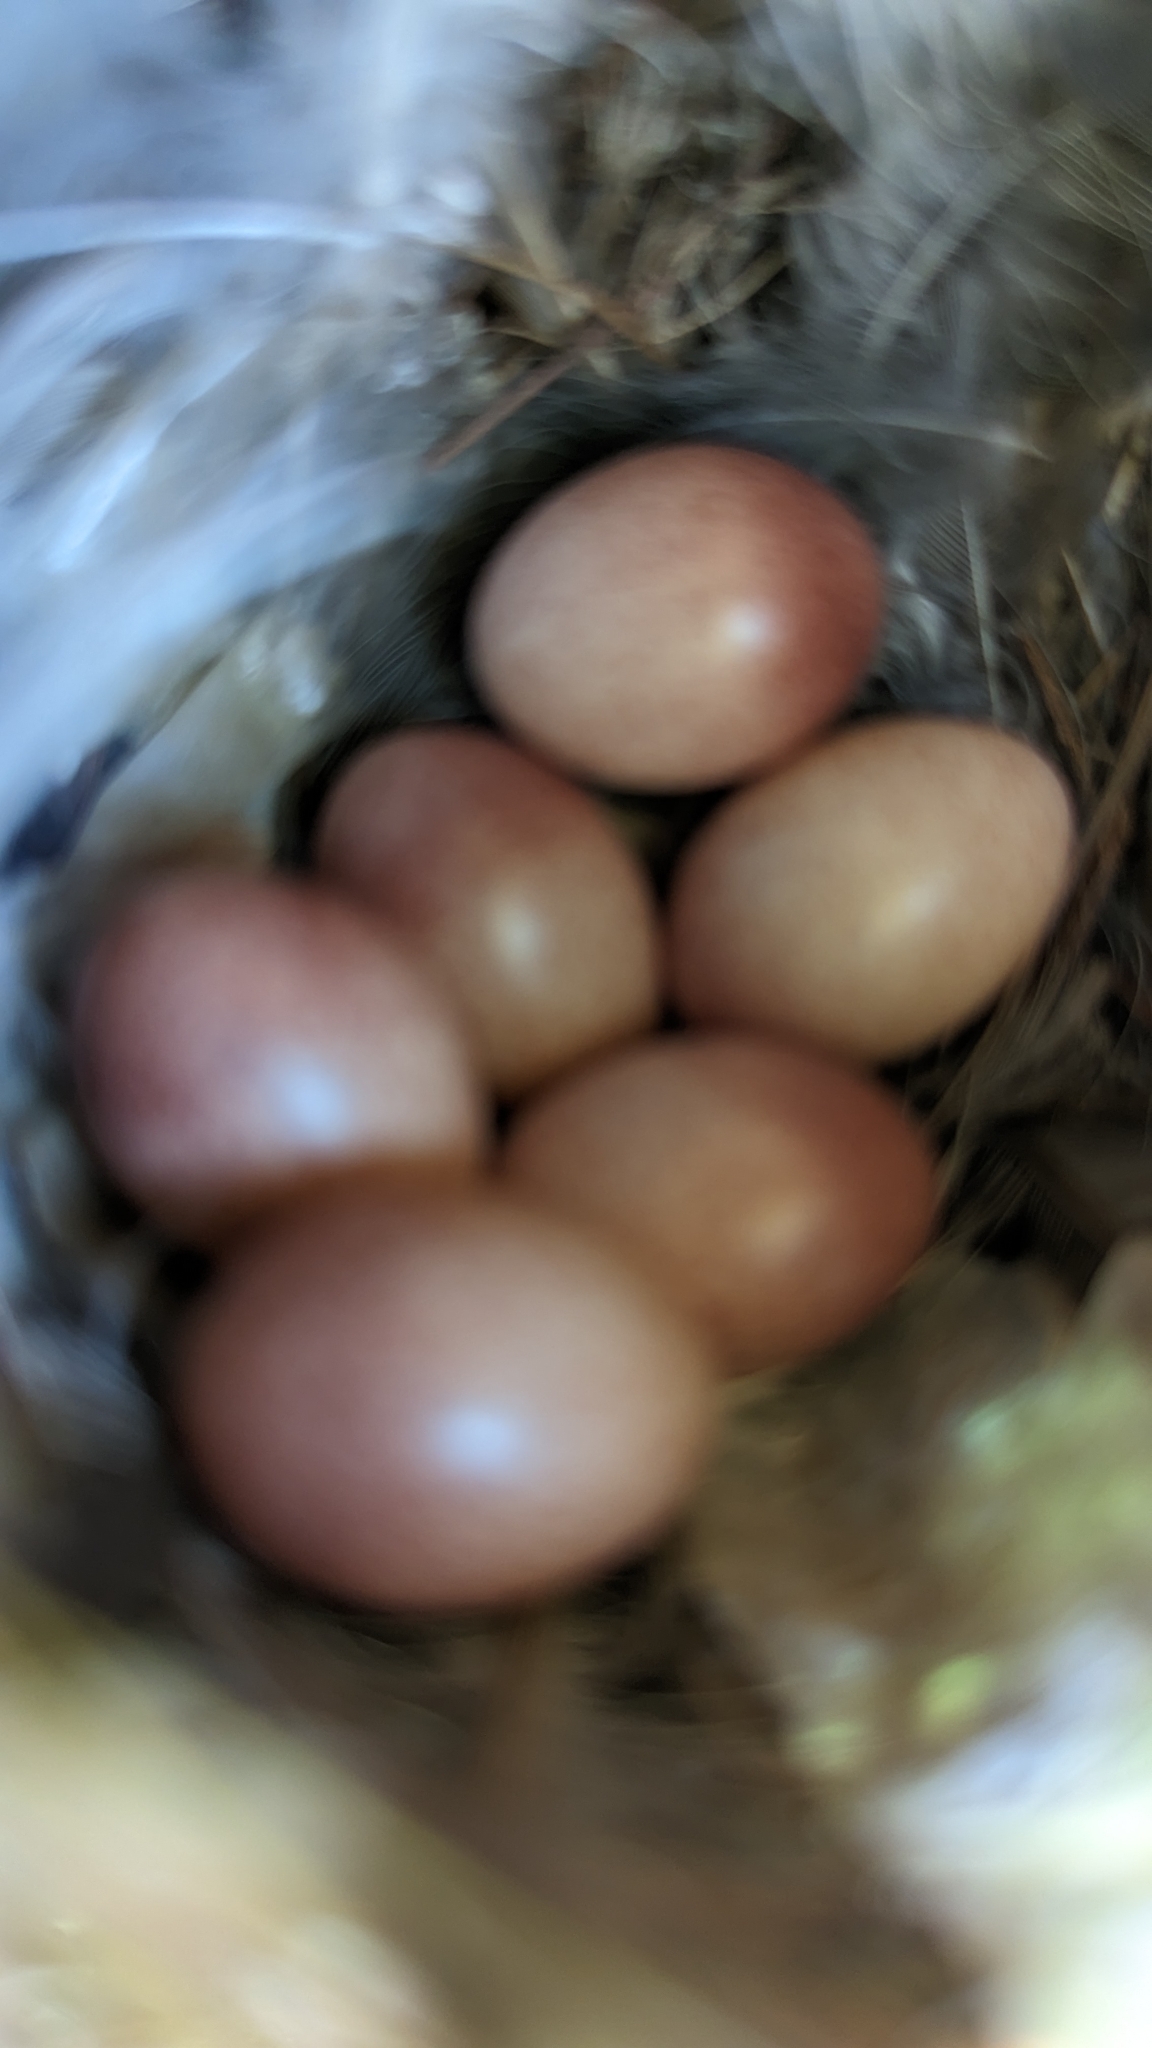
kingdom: Animalia
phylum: Chordata
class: Aves
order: Passeriformes
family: Troglodytidae
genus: Troglodytes
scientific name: Troglodytes aedon
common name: House wren
